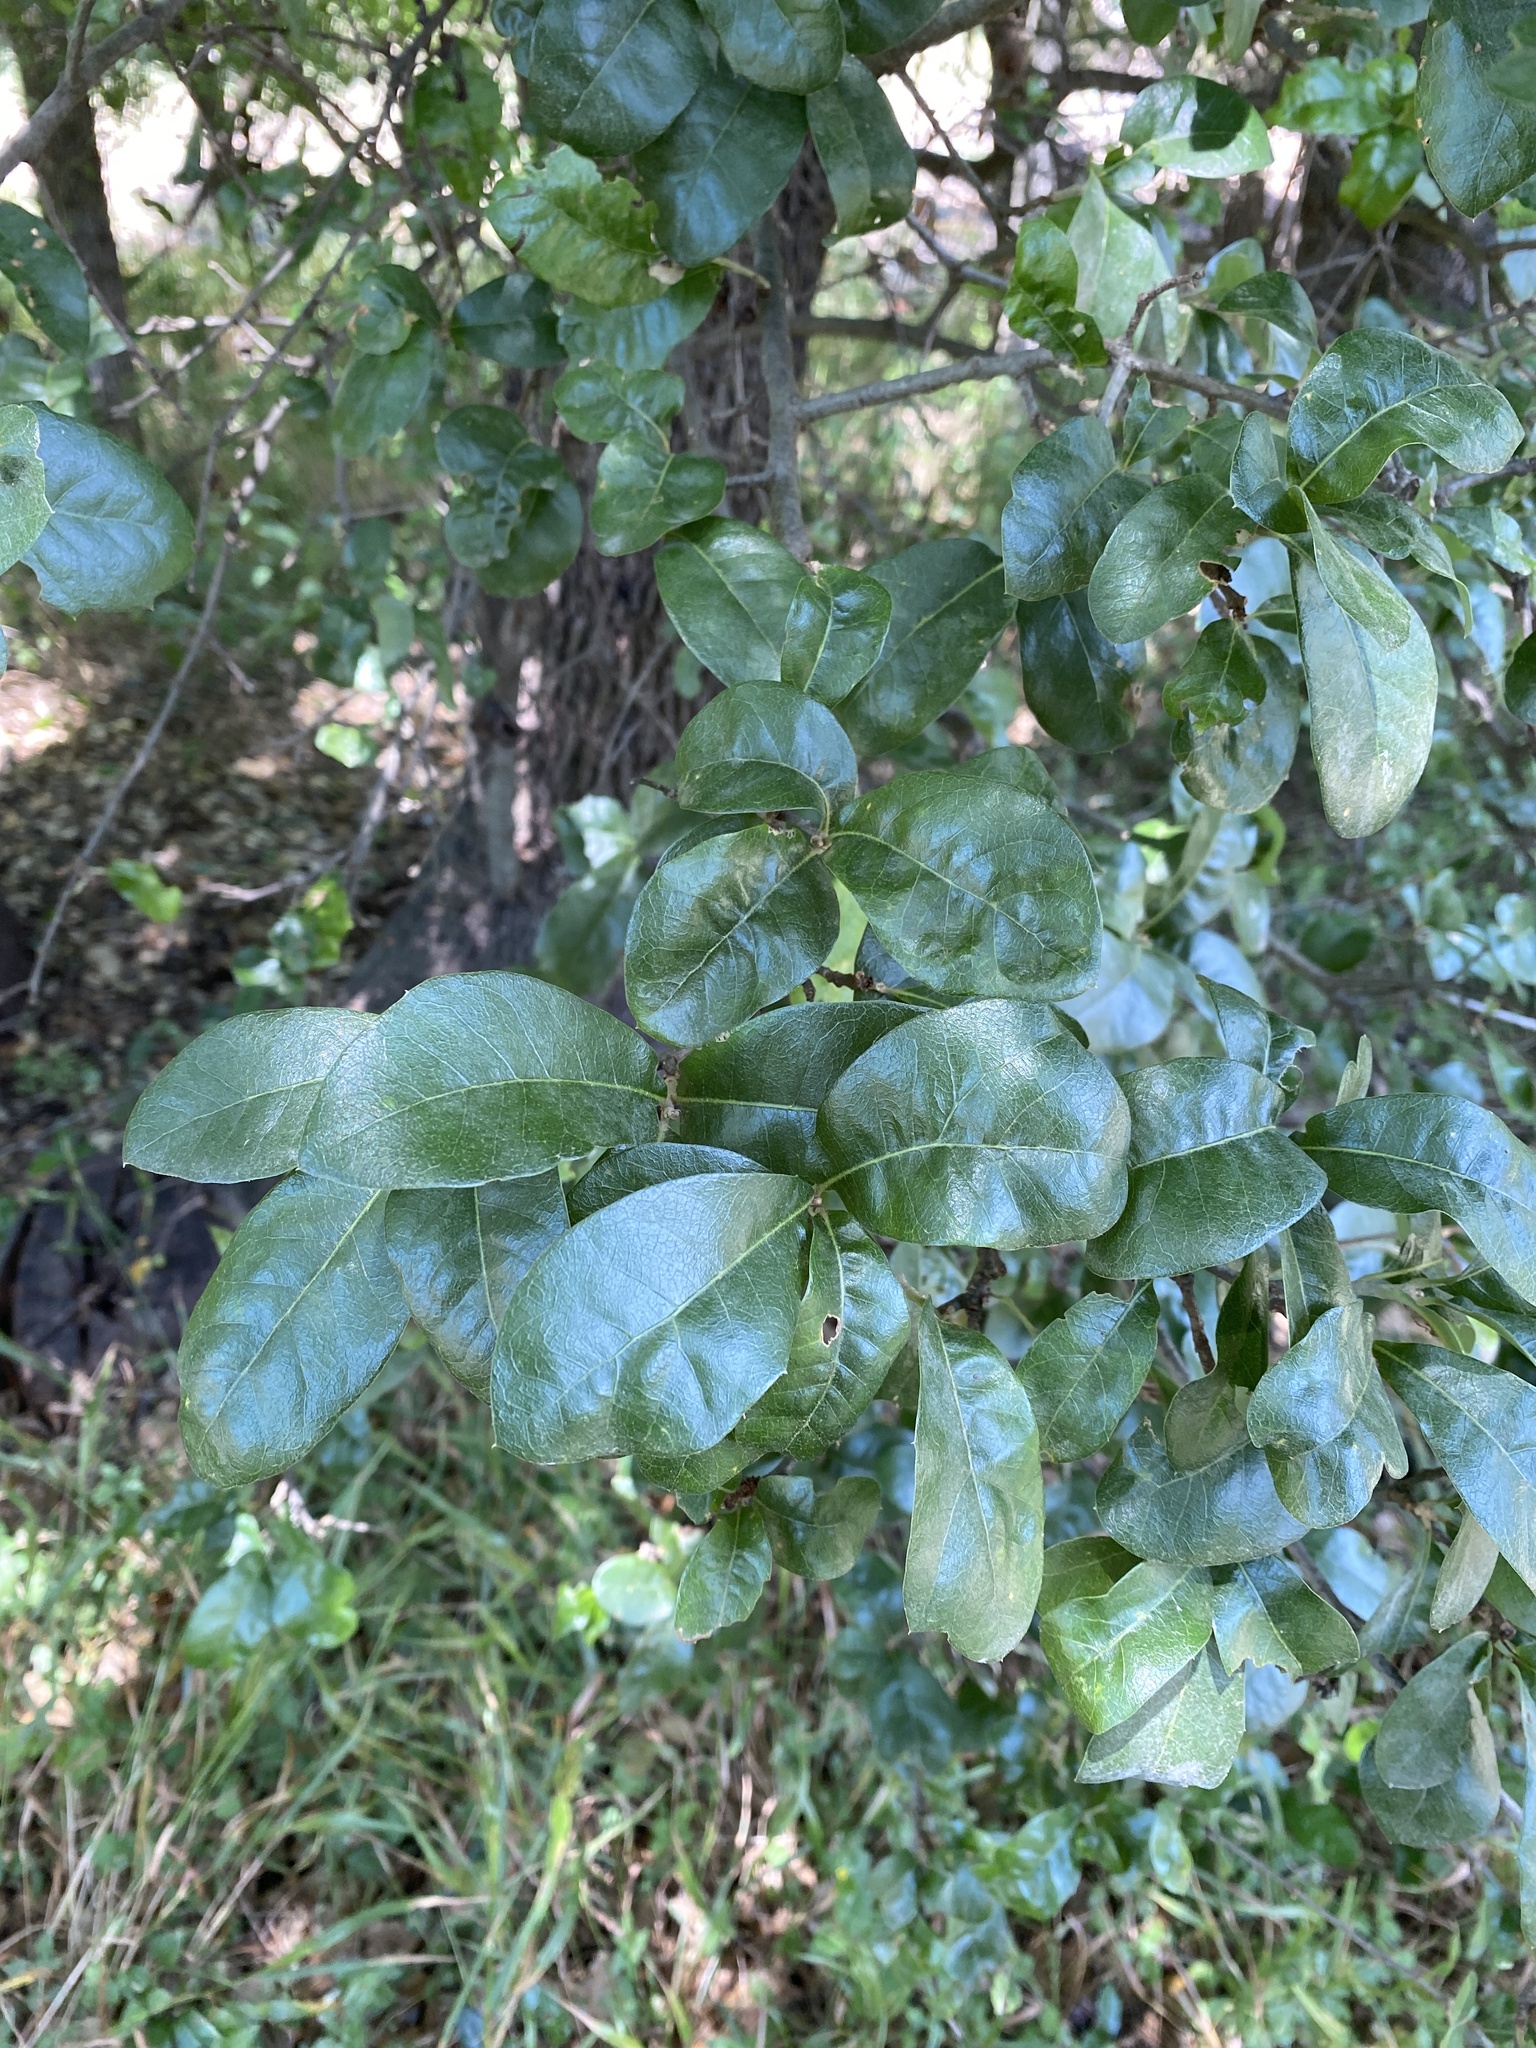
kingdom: Plantae
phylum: Tracheophyta
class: Magnoliopsida
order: Boraginales
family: Ehretiaceae
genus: Ehretia
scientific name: Ehretia anacua
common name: Sugarberry
